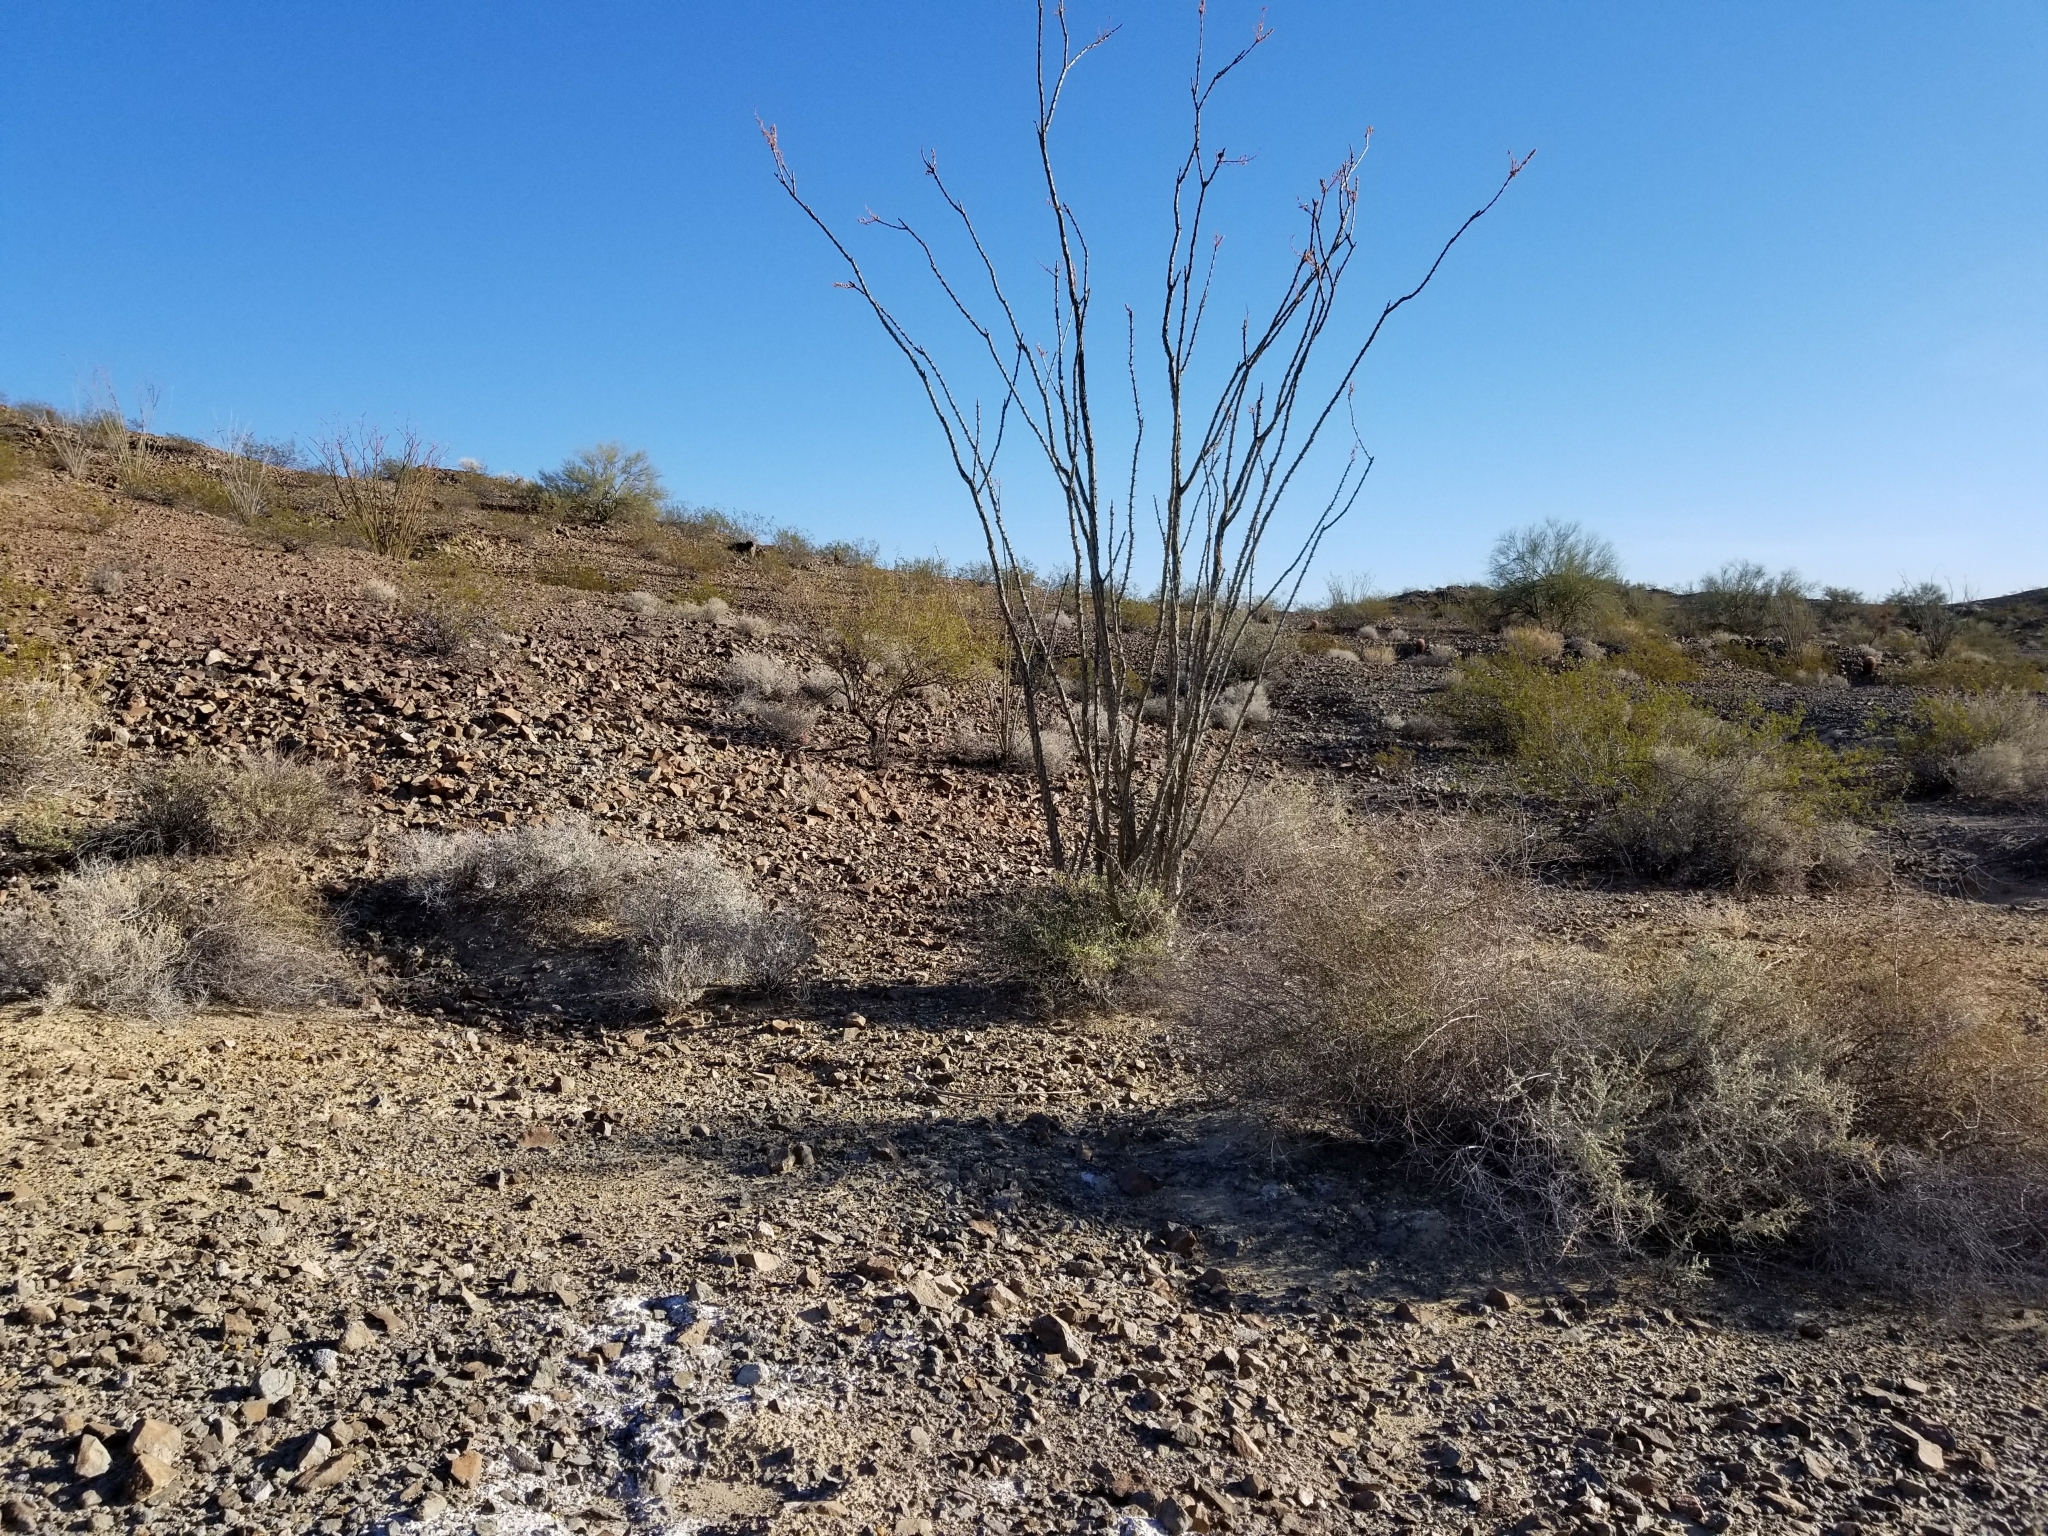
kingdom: Plantae
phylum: Tracheophyta
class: Magnoliopsida
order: Ericales
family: Fouquieriaceae
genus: Fouquieria
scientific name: Fouquieria splendens
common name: Vine-cactus
